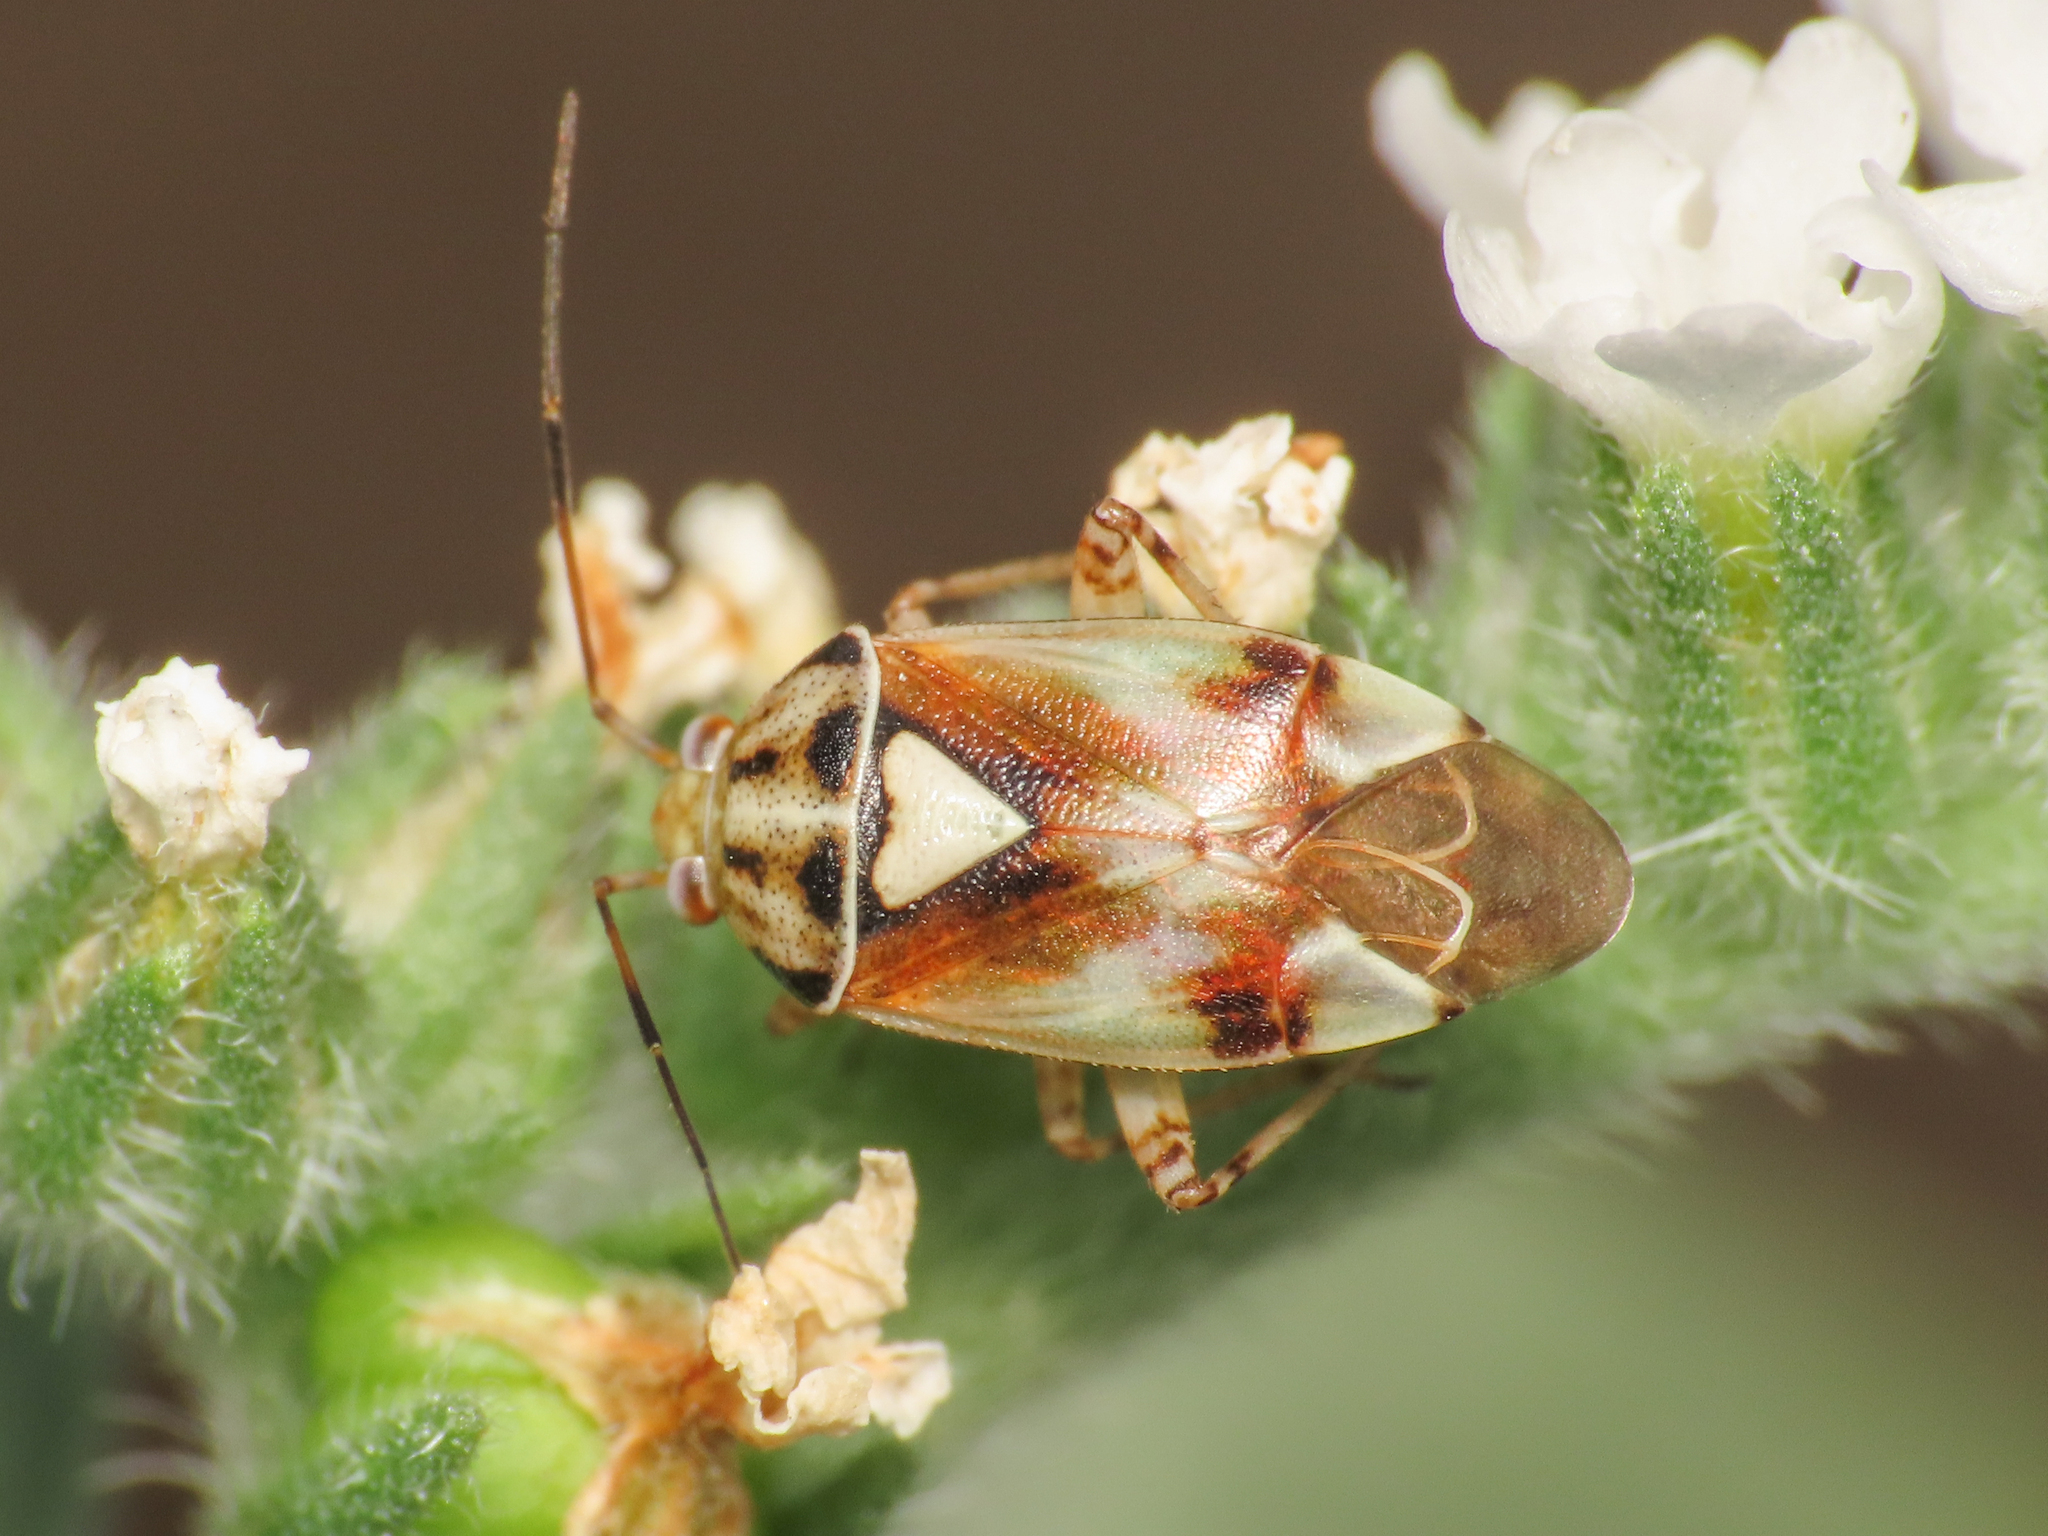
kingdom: Animalia
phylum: Arthropoda
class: Insecta
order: Hemiptera
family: Miridae
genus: Lygus
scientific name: Lygus pratensis
